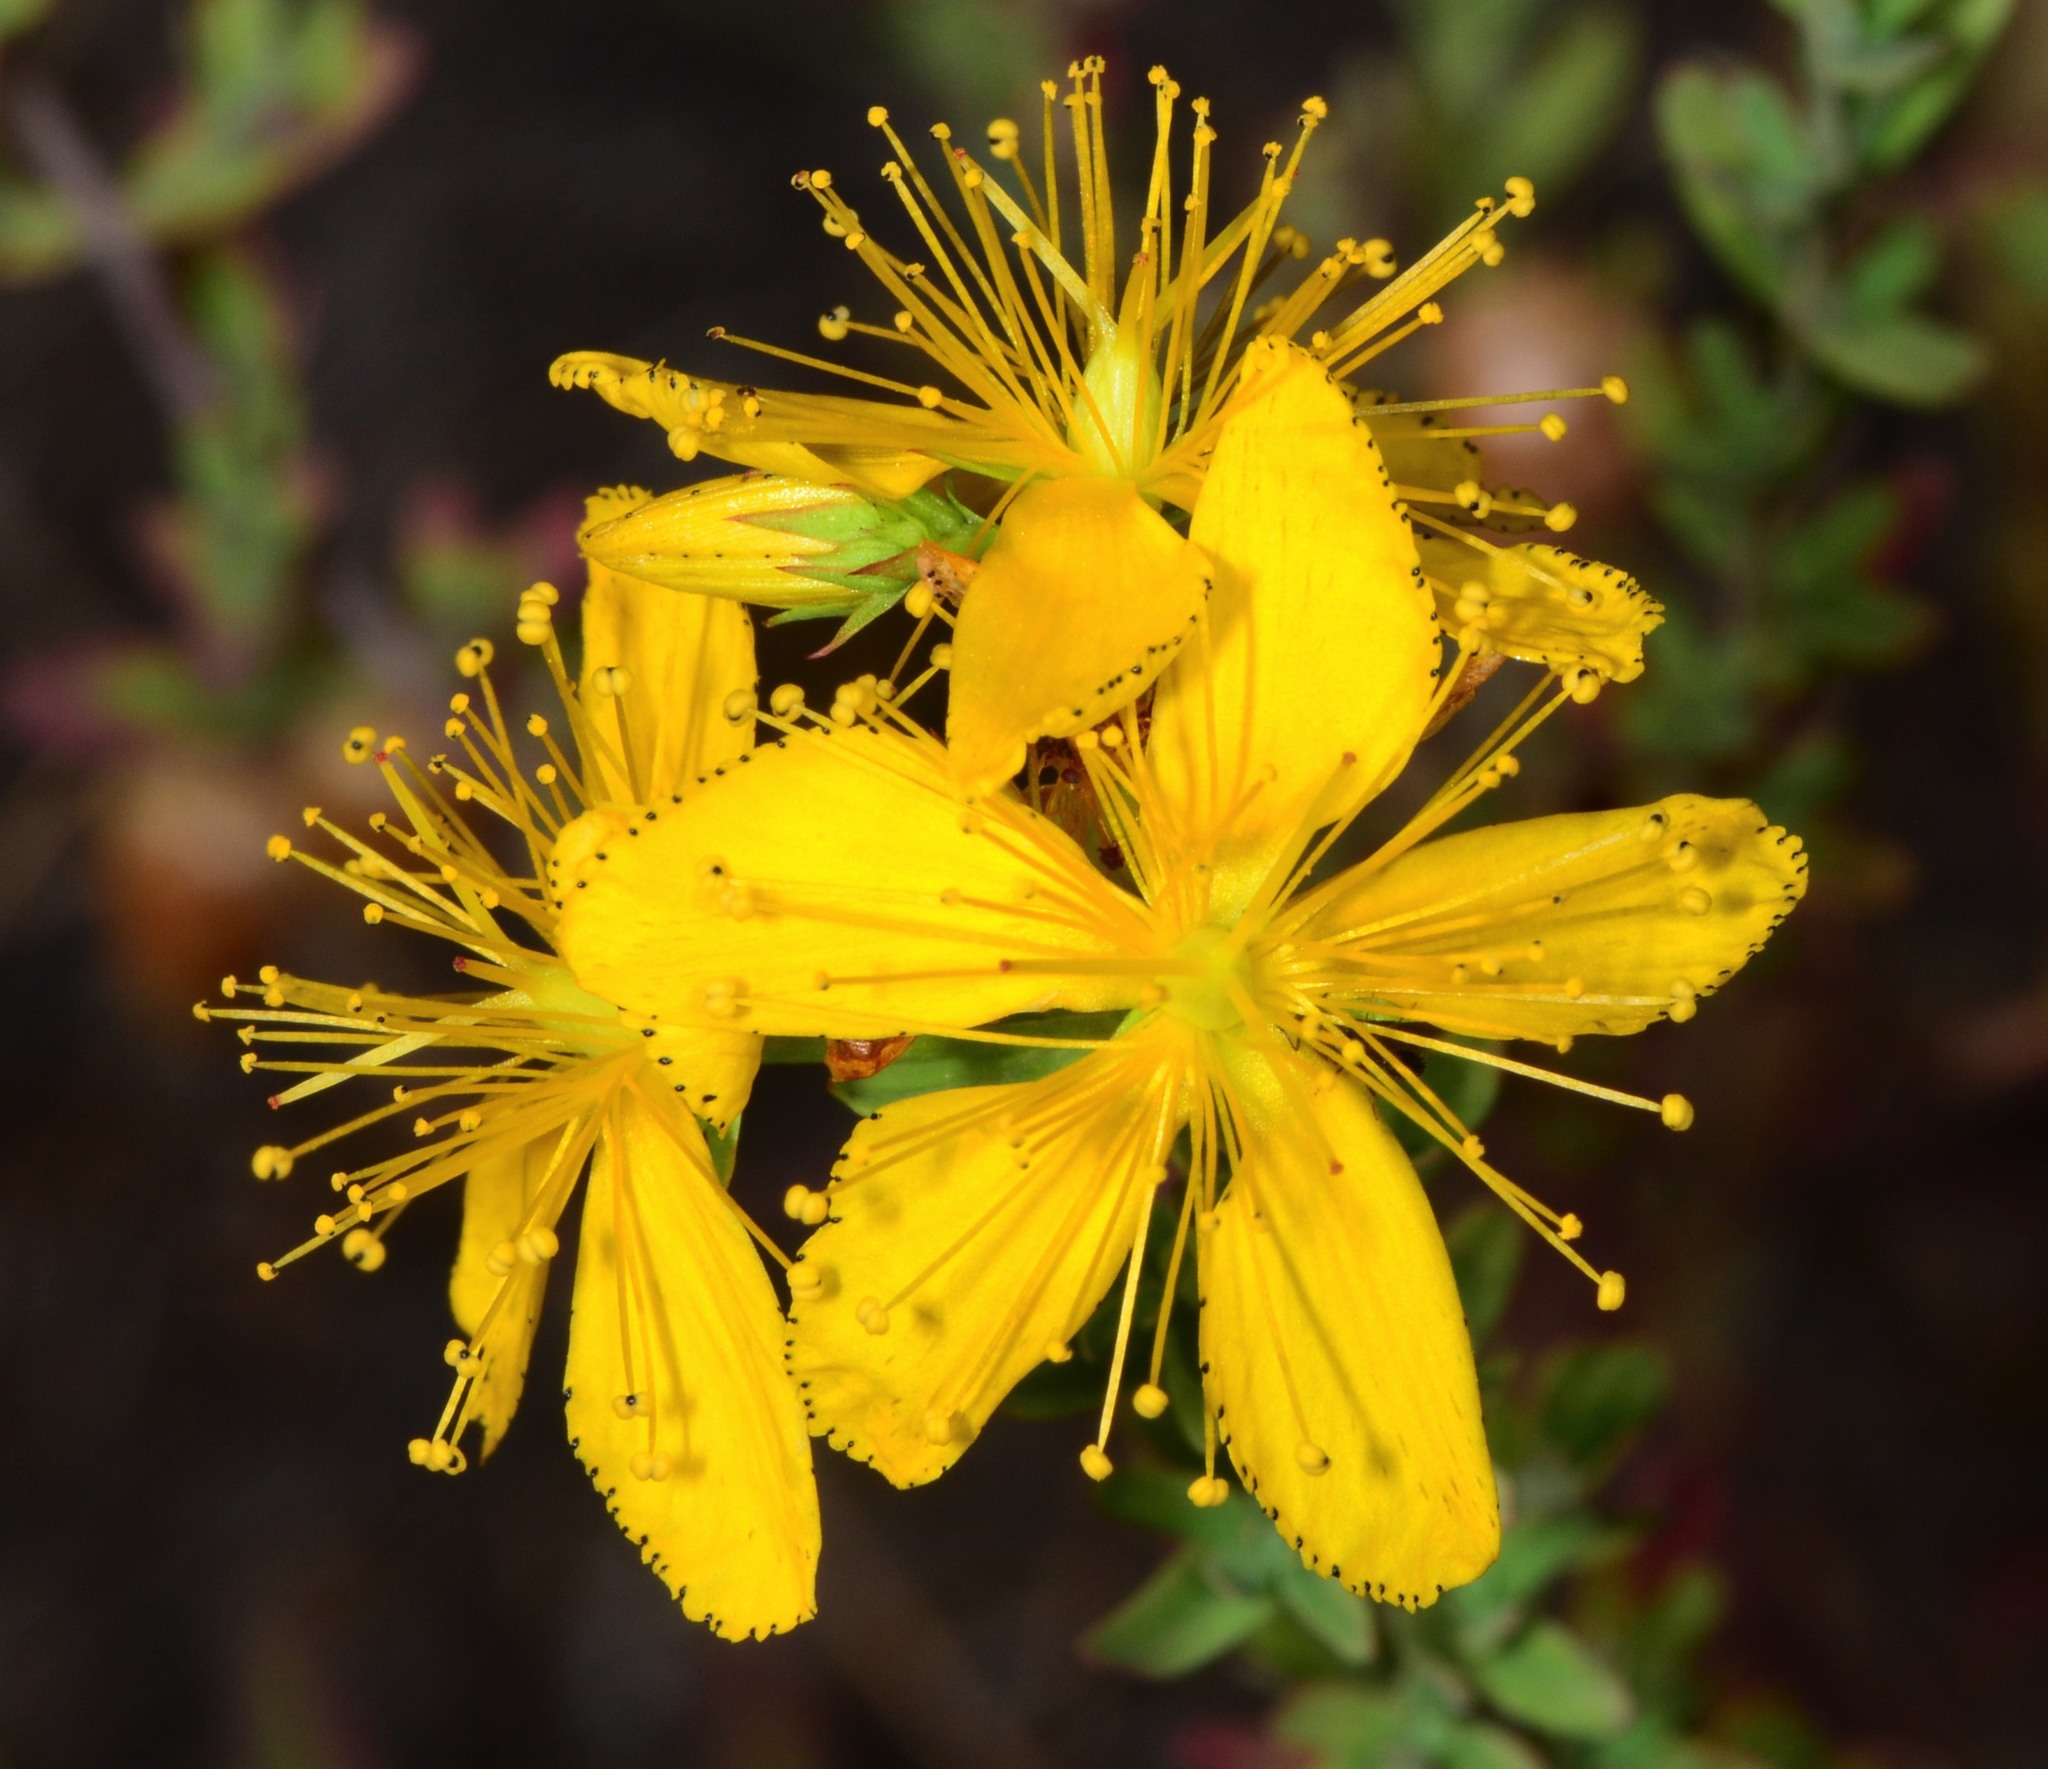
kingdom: Plantae
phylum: Tracheophyta
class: Magnoliopsida
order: Malpighiales
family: Hypericaceae
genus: Hypericum
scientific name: Hypericum perforatum
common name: Common st. johnswort
